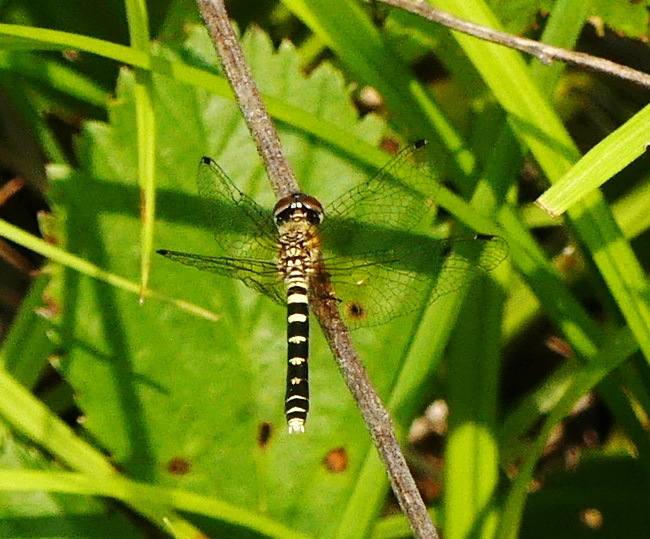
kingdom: Animalia
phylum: Arthropoda
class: Insecta
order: Odonata
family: Libellulidae
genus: Nannothemis
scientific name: Nannothemis bella
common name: Elfin skimmer
